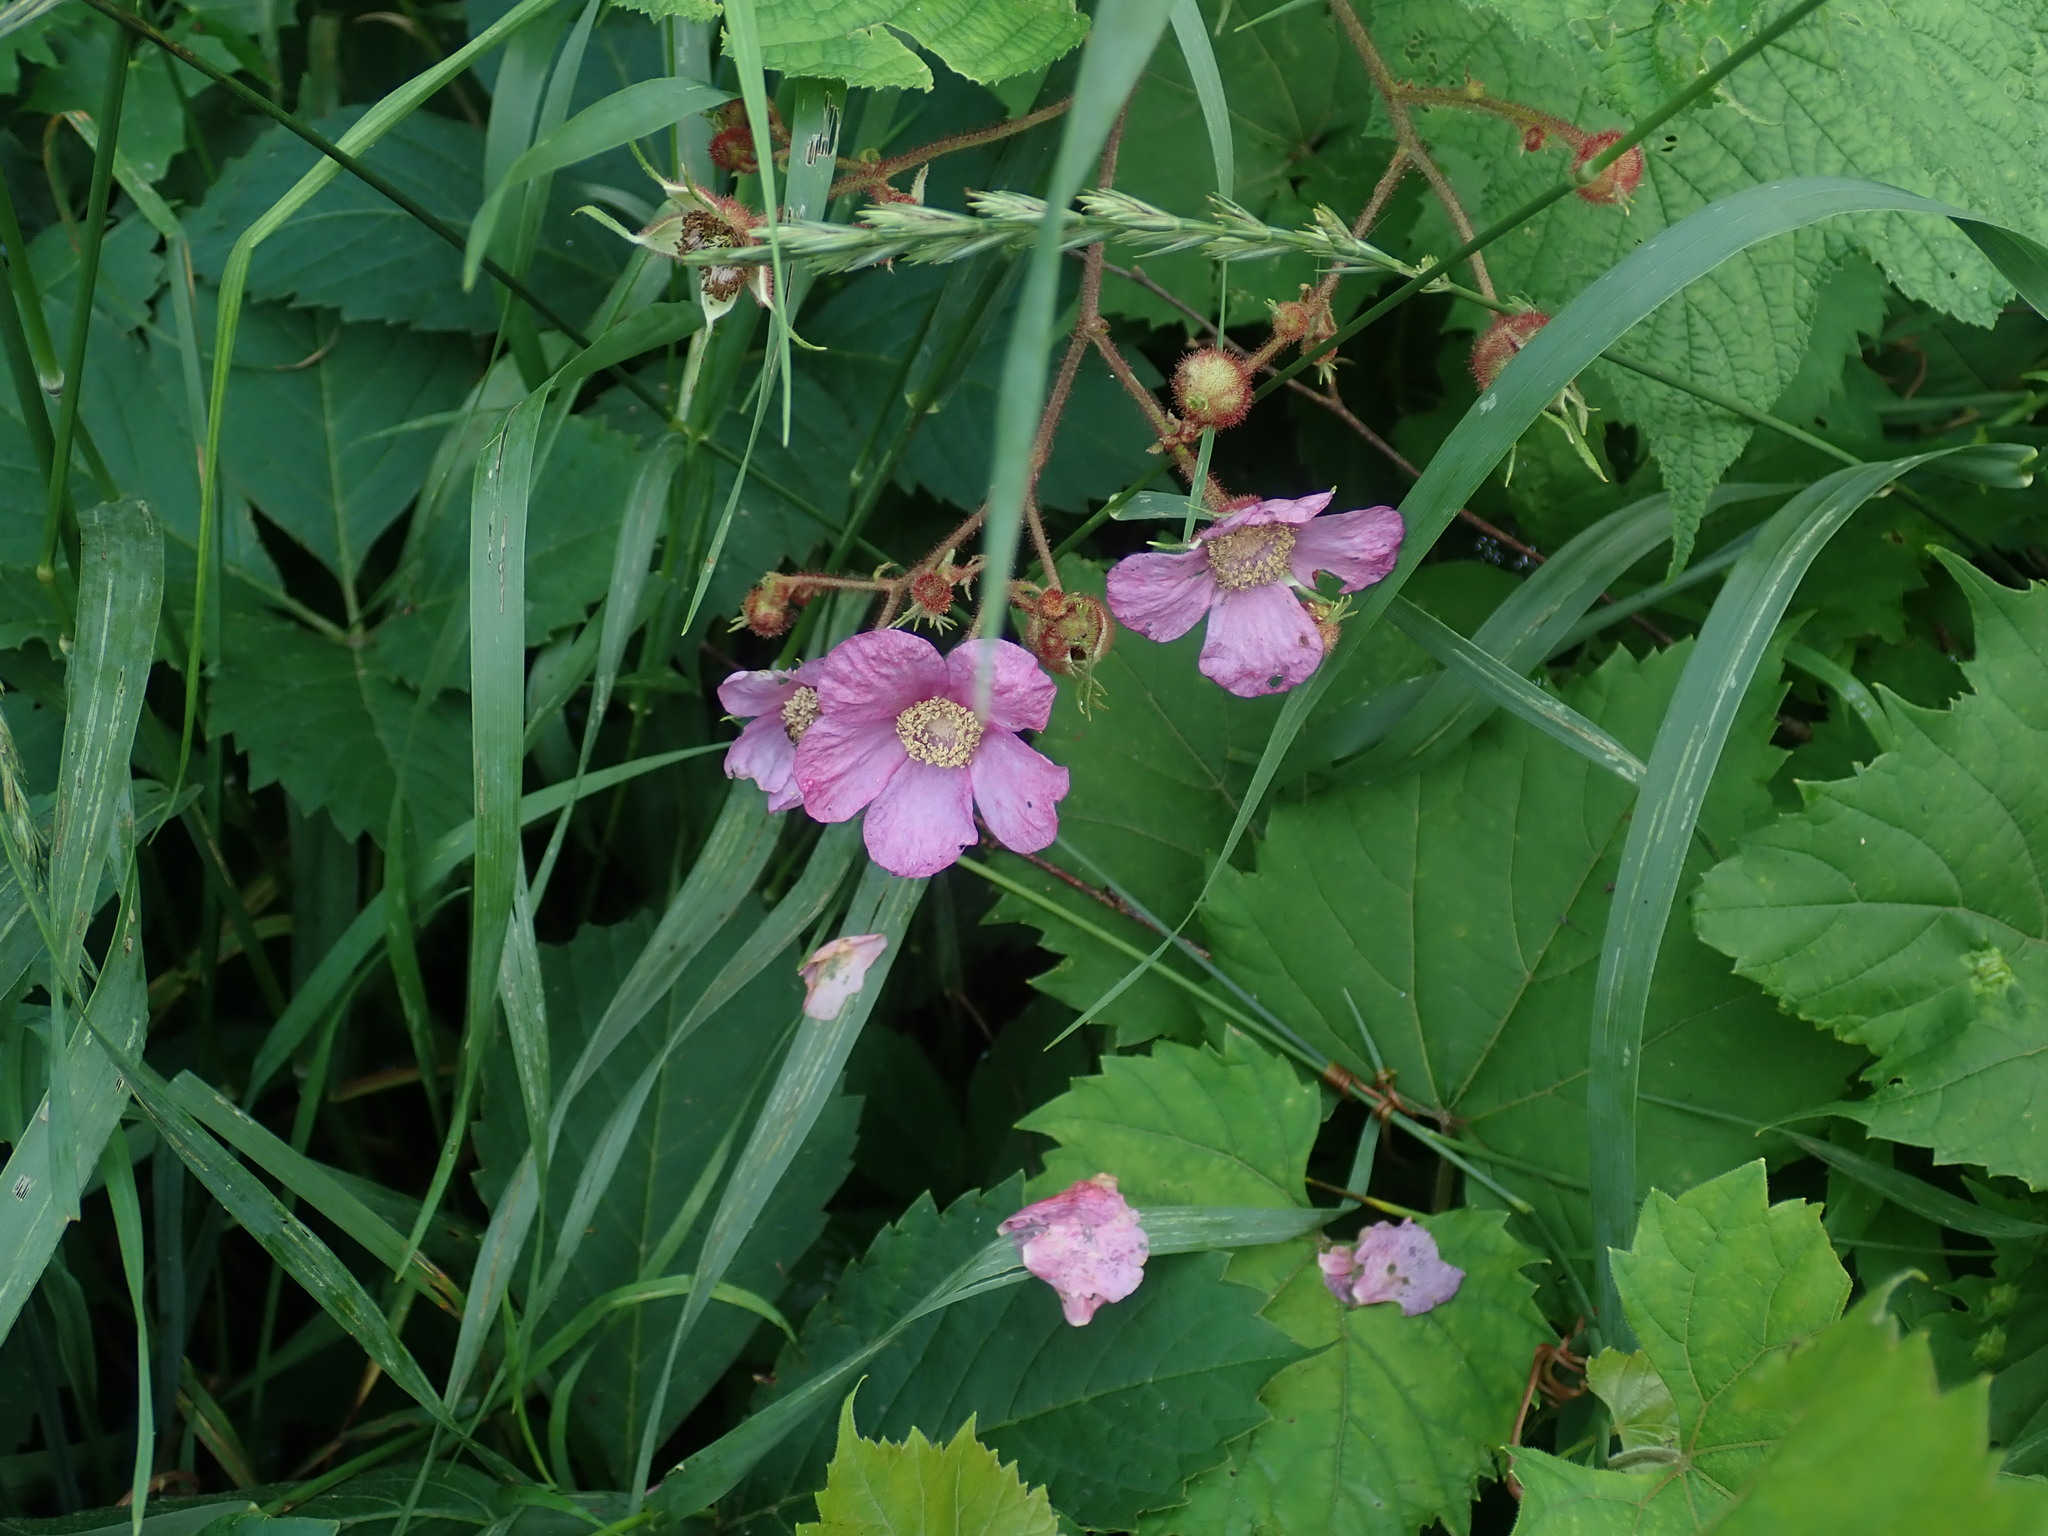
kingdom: Plantae
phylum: Tracheophyta
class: Magnoliopsida
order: Rosales
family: Rosaceae
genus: Rubus
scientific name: Rubus odoratus
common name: Purple-flowered raspberry
